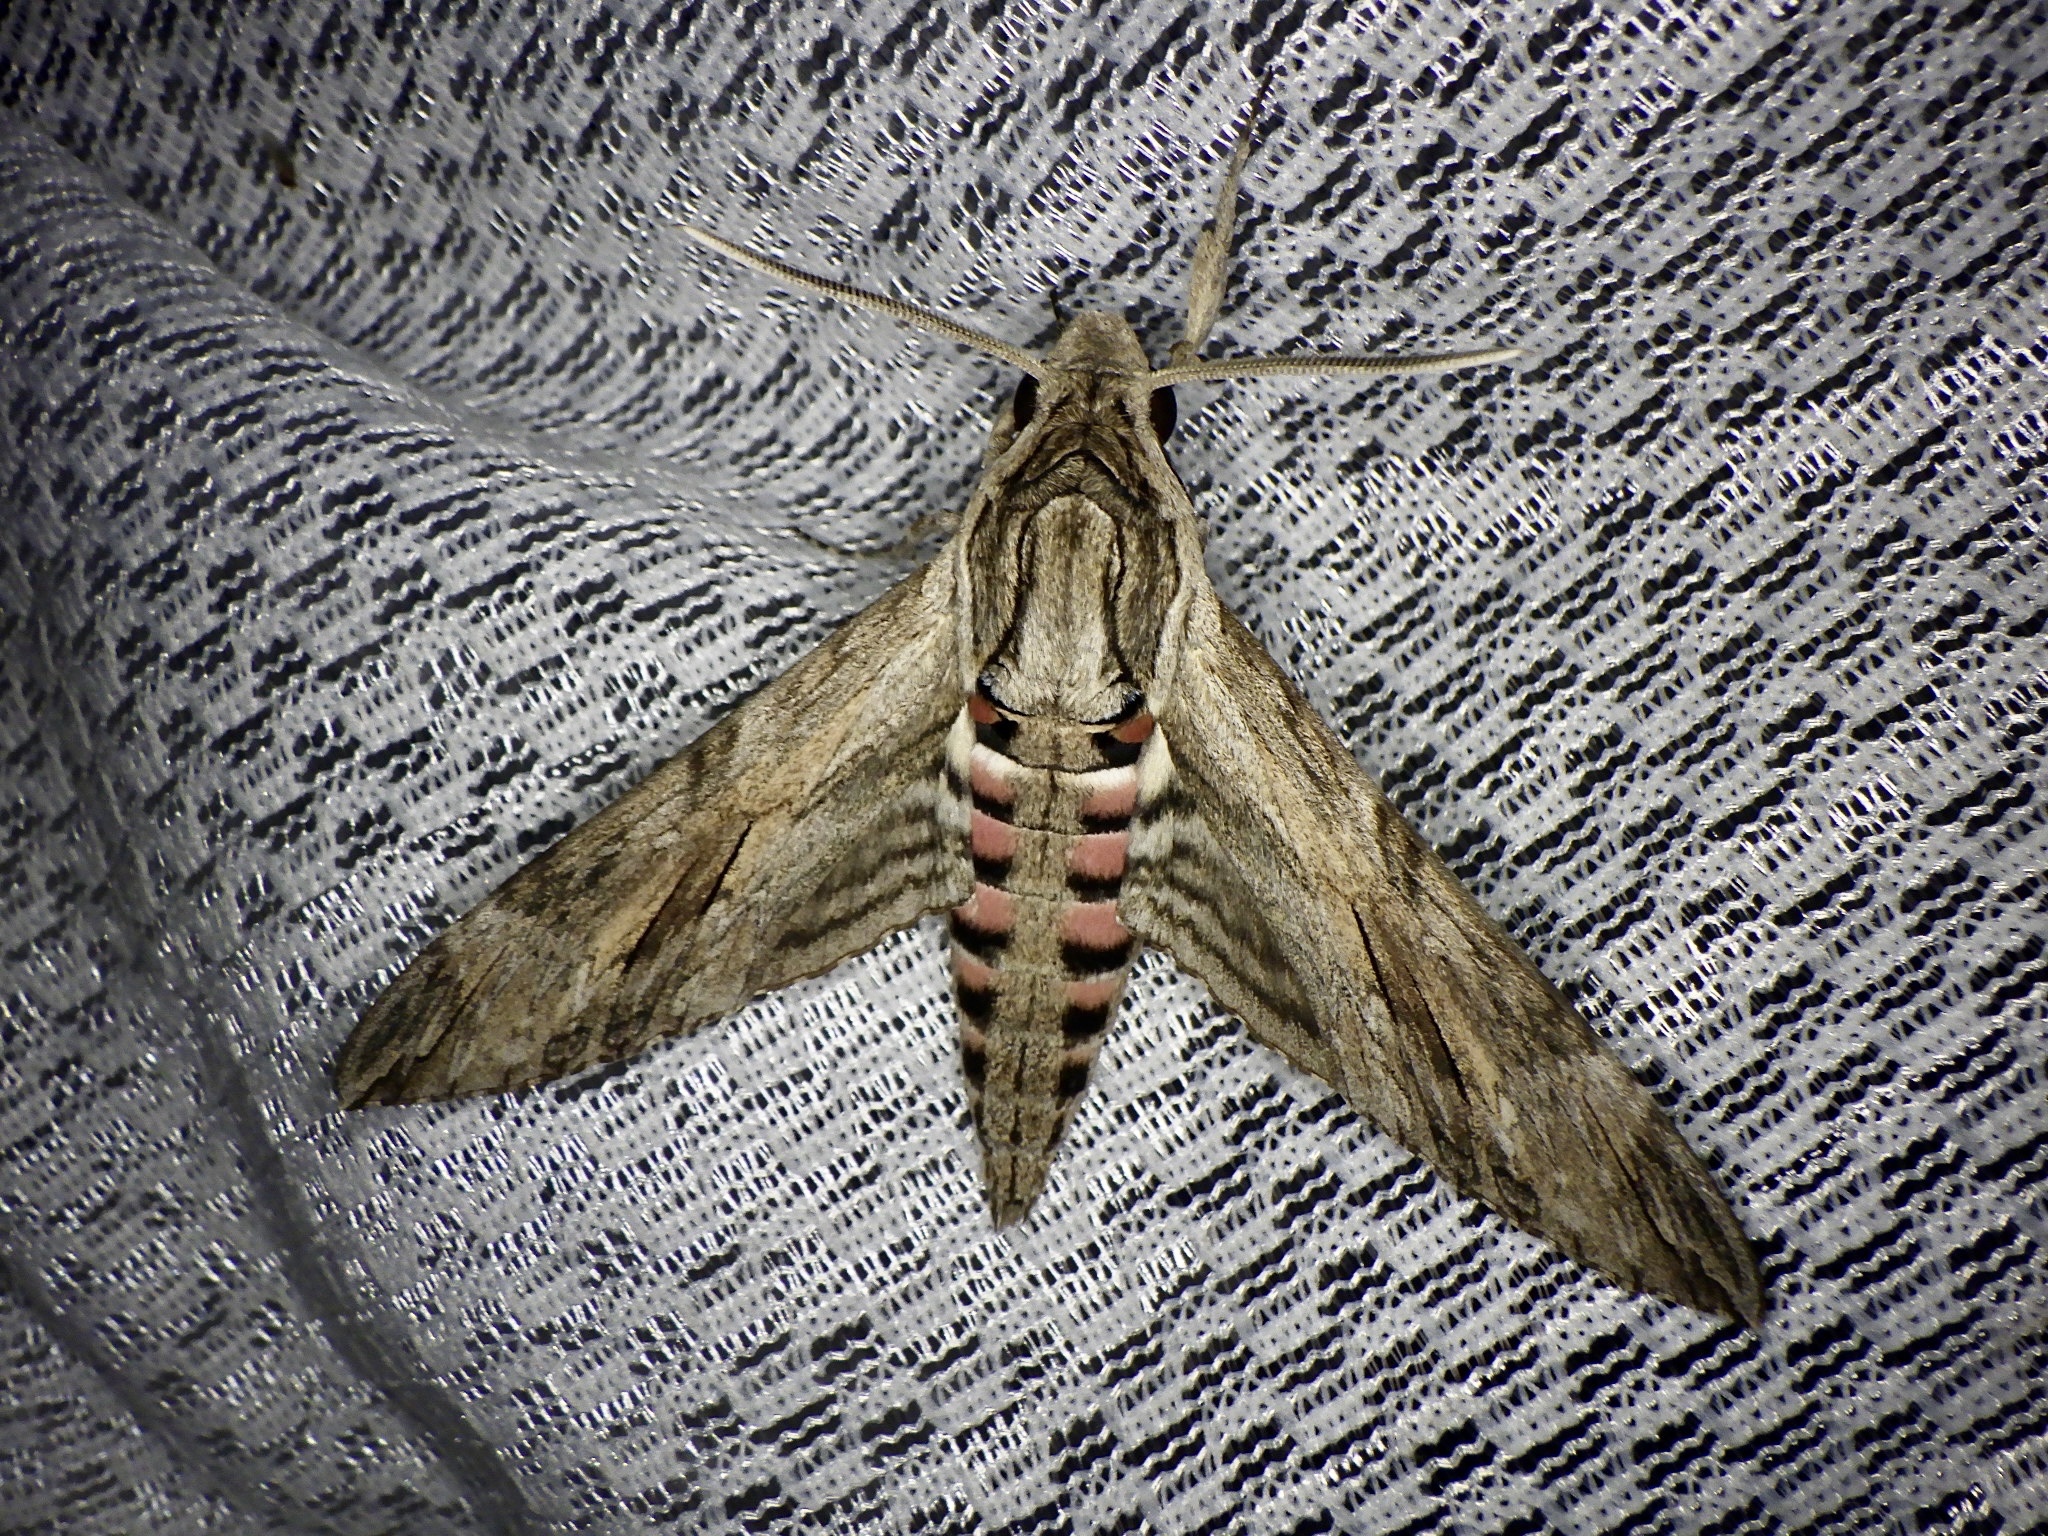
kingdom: Animalia
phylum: Arthropoda
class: Insecta
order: Lepidoptera
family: Sphingidae
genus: Agrius
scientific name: Agrius convolvuli
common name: Convolvulus hawkmoth
